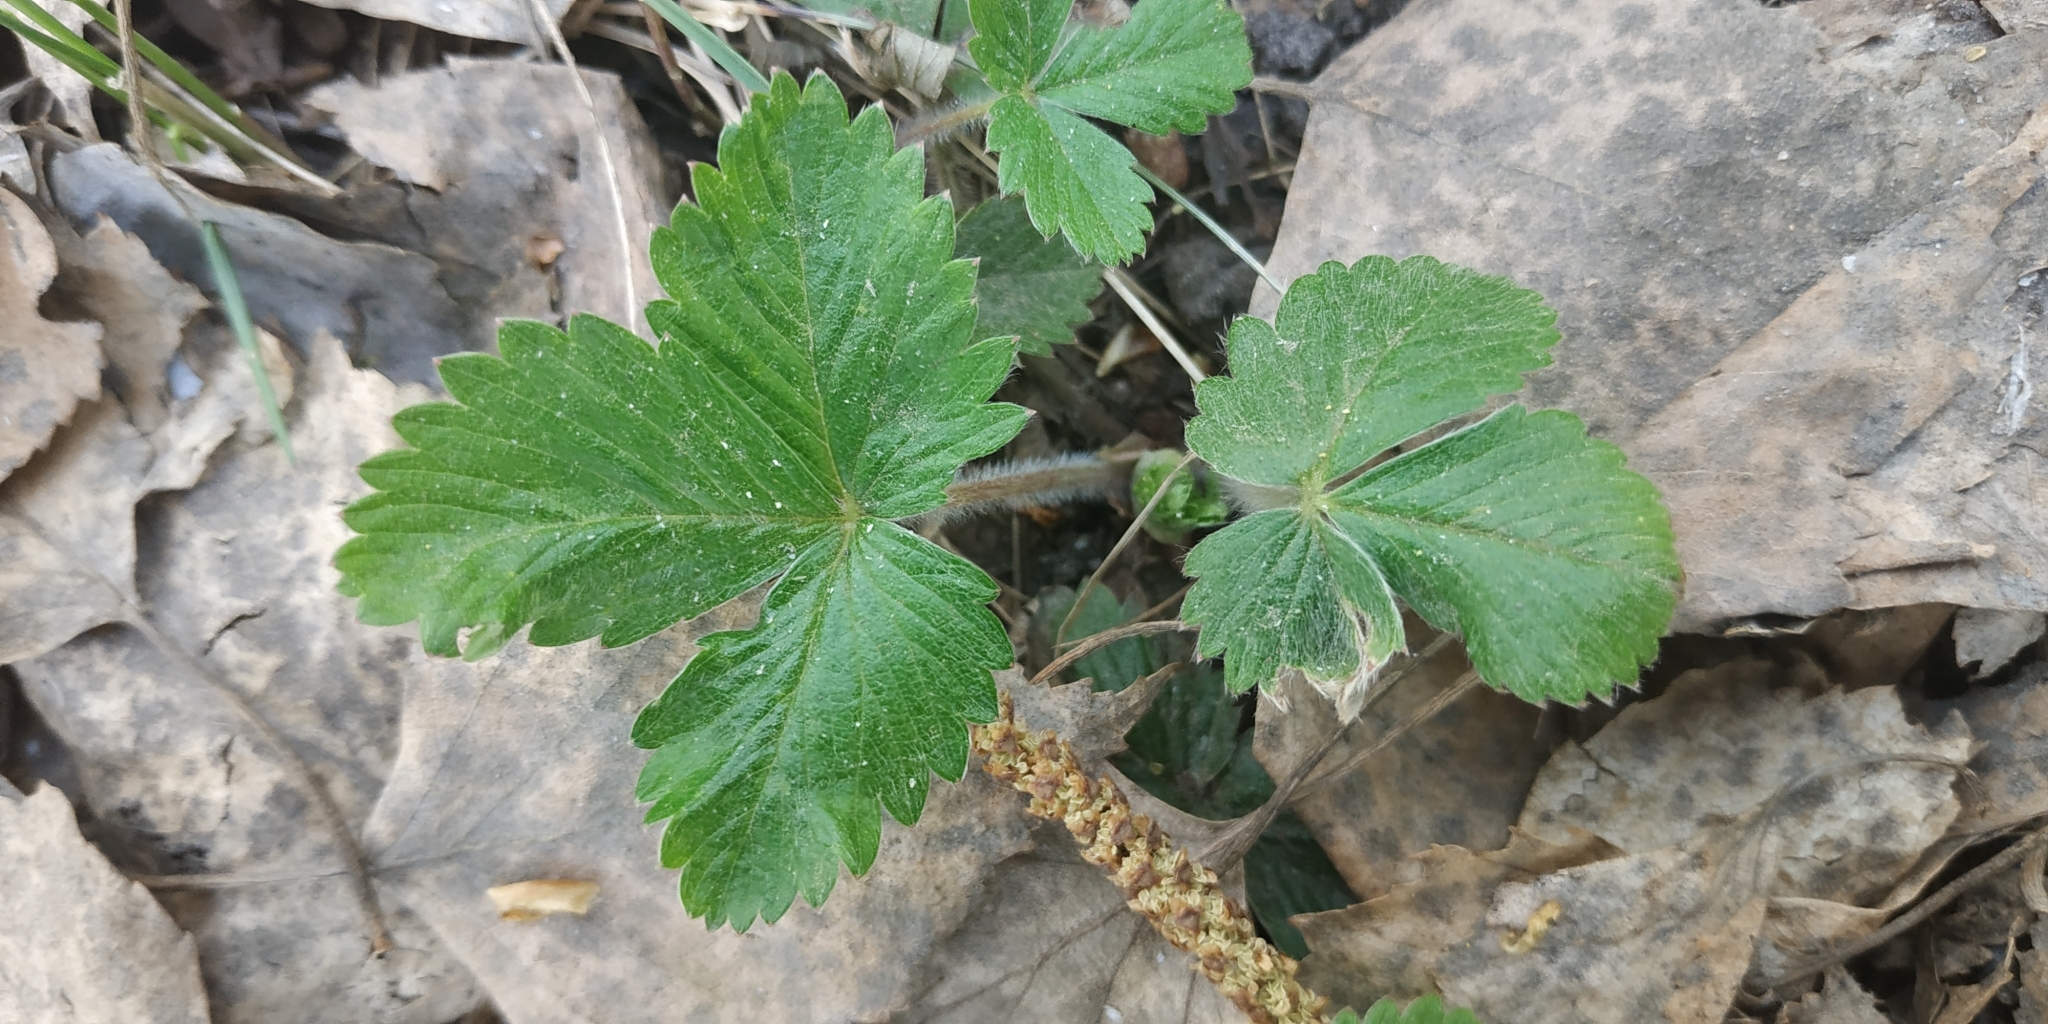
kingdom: Plantae
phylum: Tracheophyta
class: Magnoliopsida
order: Rosales
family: Rosaceae
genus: Fragaria
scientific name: Fragaria vesca
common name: Wild strawberry
